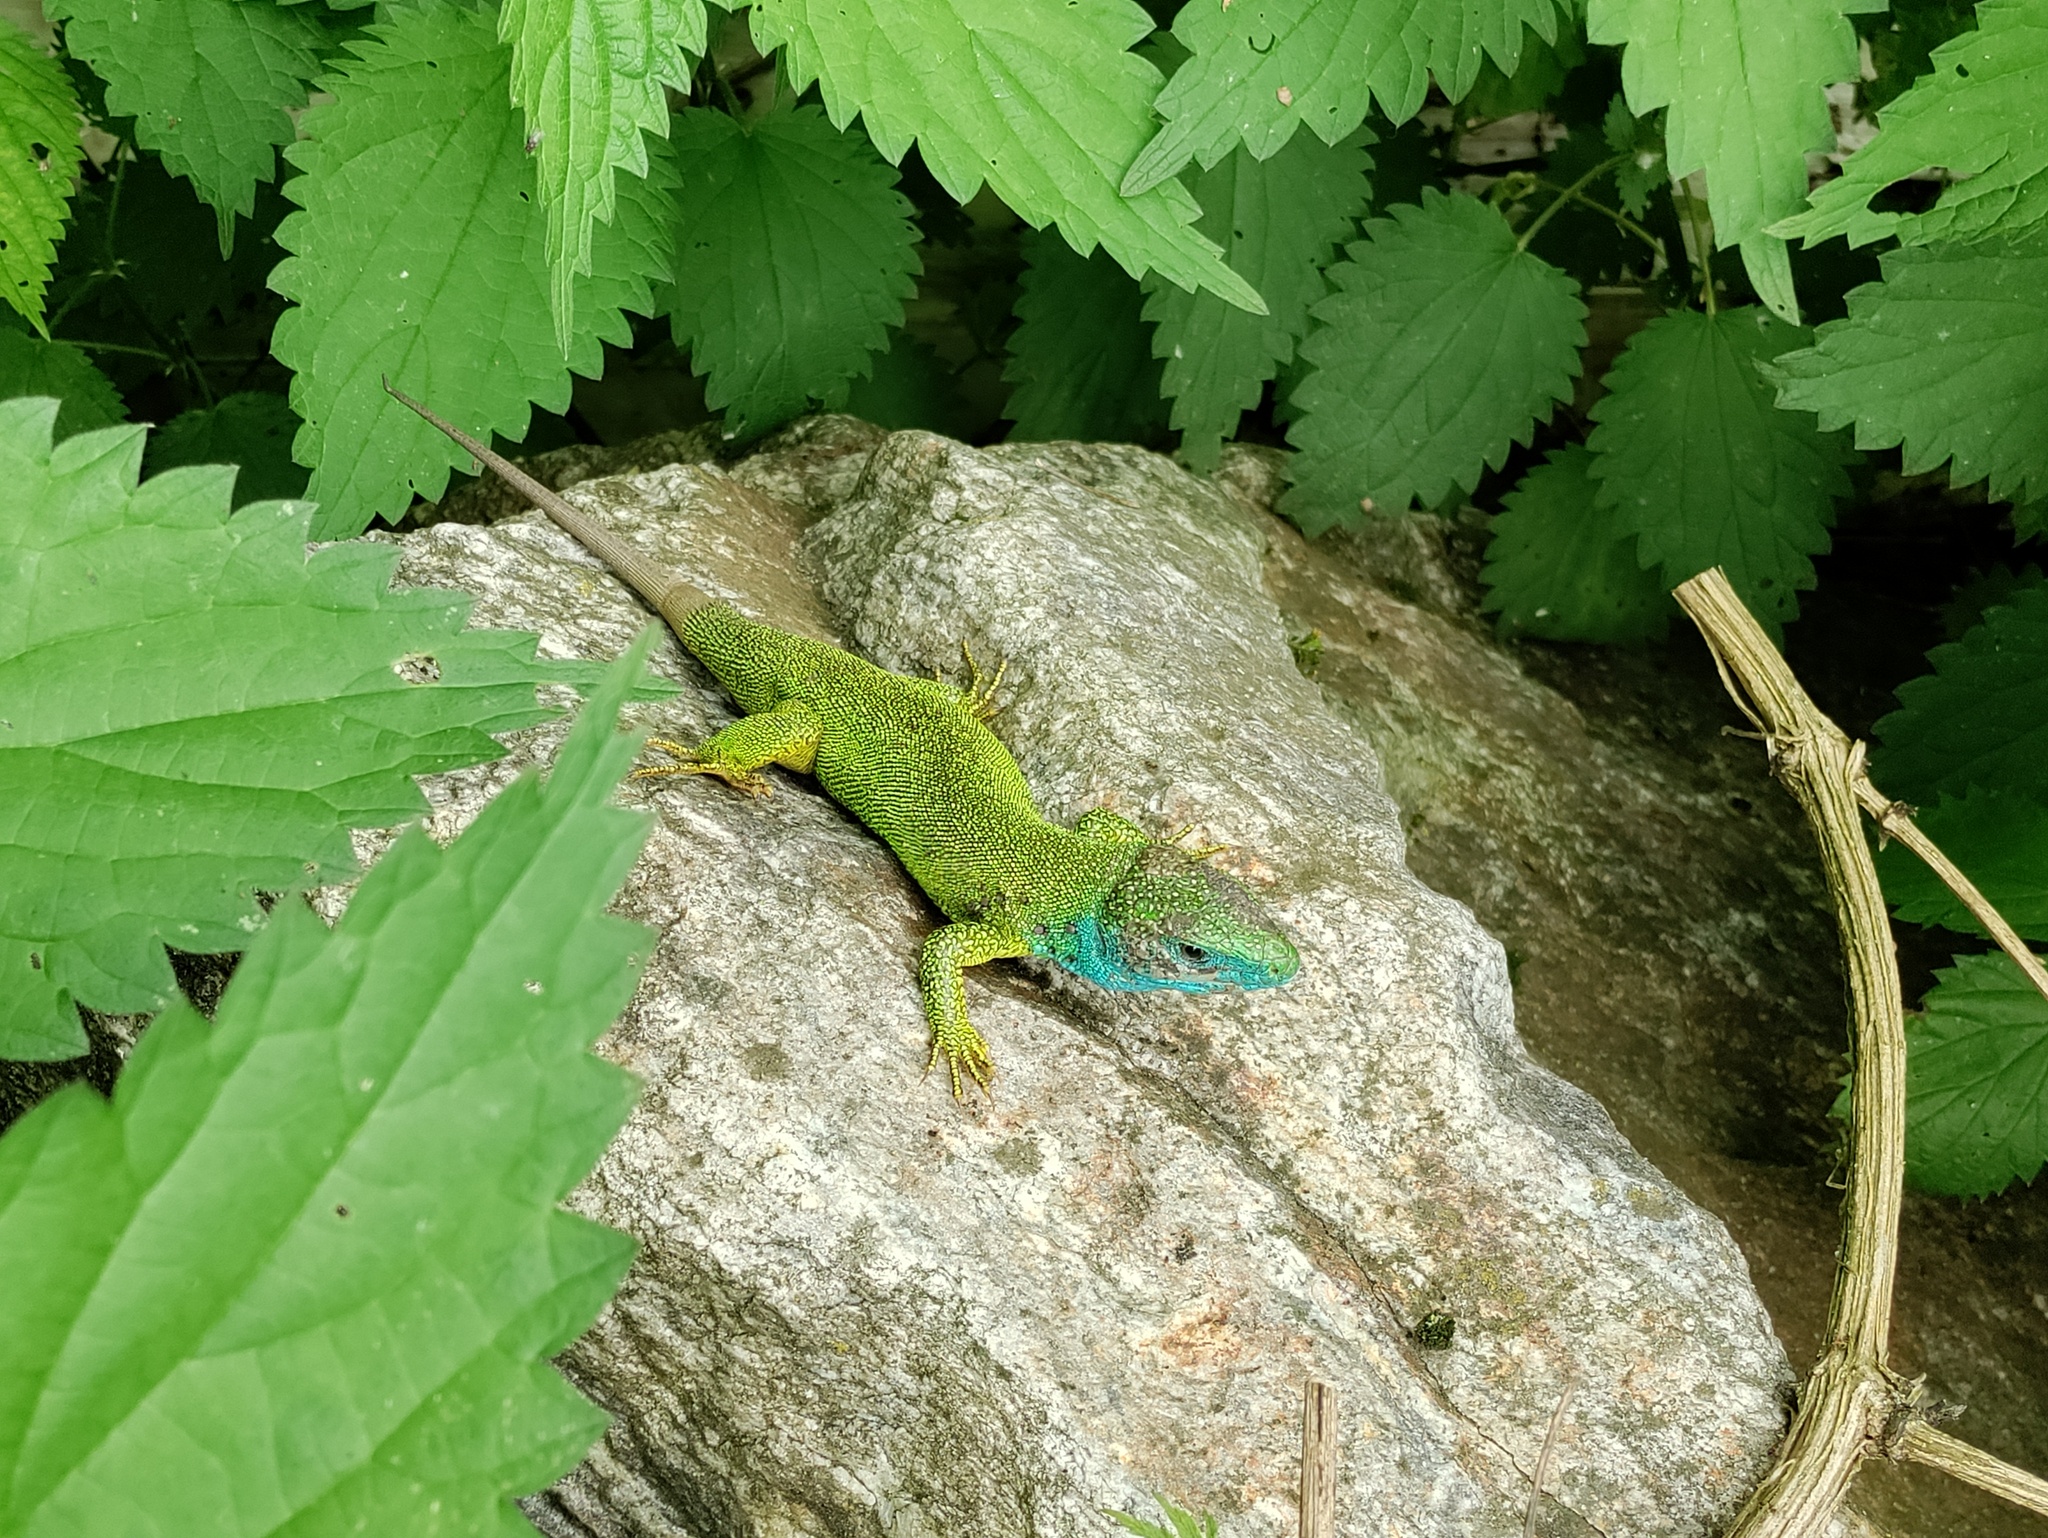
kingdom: Animalia
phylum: Chordata
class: Squamata
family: Lacertidae
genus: Lacerta
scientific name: Lacerta viridis
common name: European green lizard
